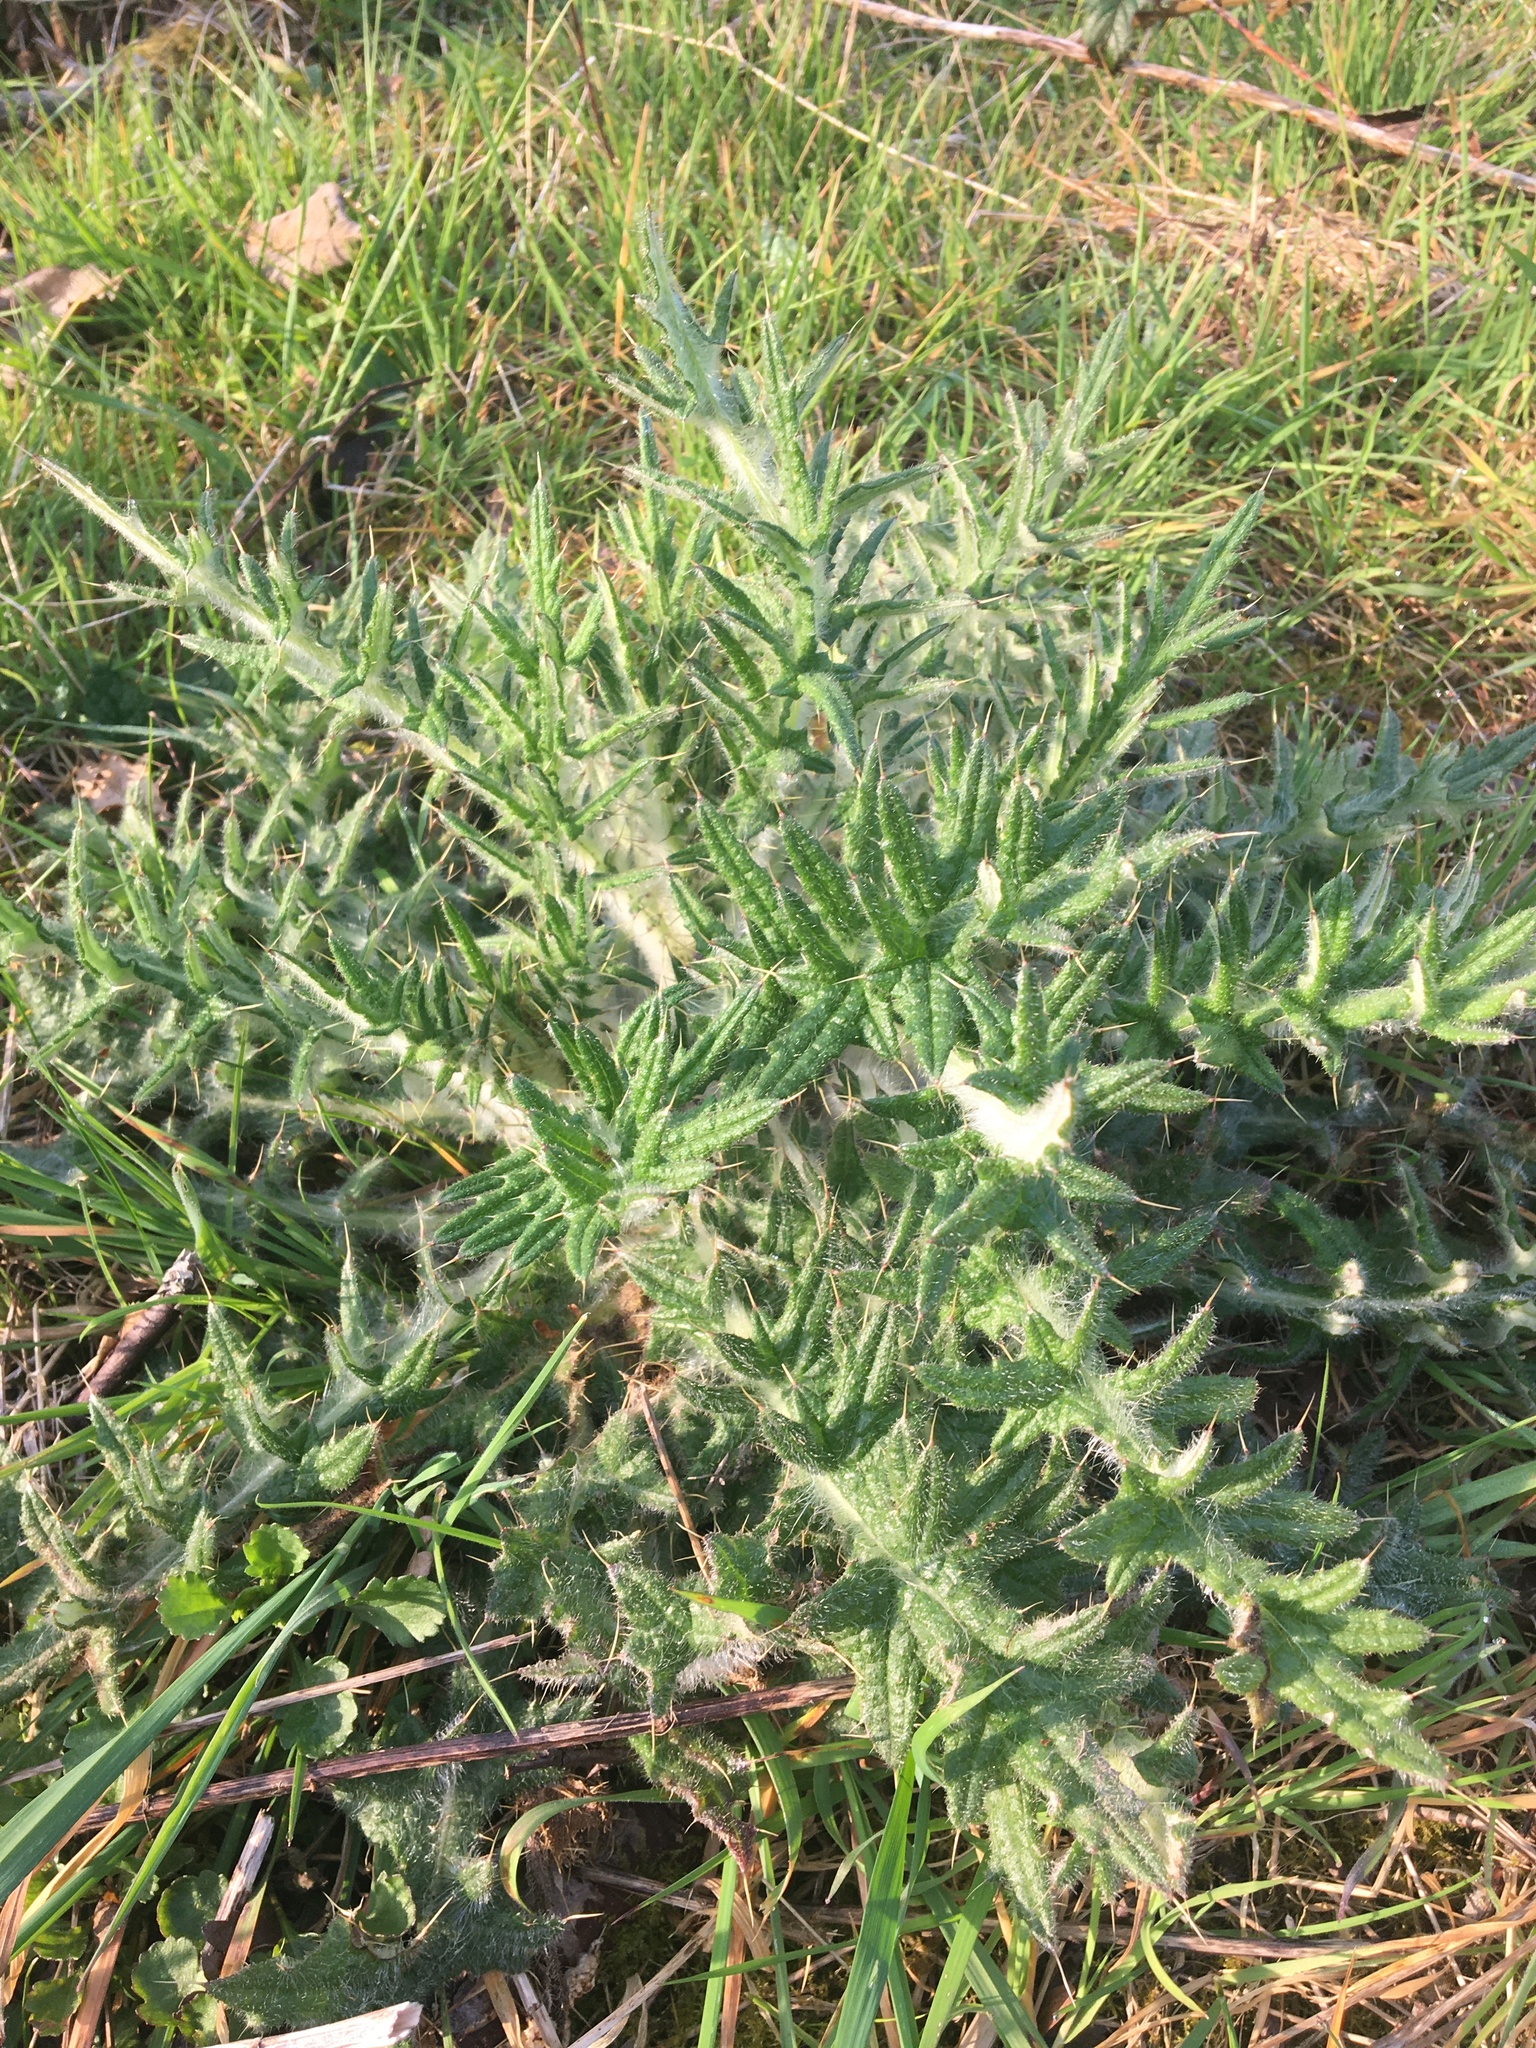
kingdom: Plantae
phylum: Tracheophyta
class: Magnoliopsida
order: Asterales
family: Asteraceae
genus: Cirsium
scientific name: Cirsium vulgare
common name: Bull thistle
